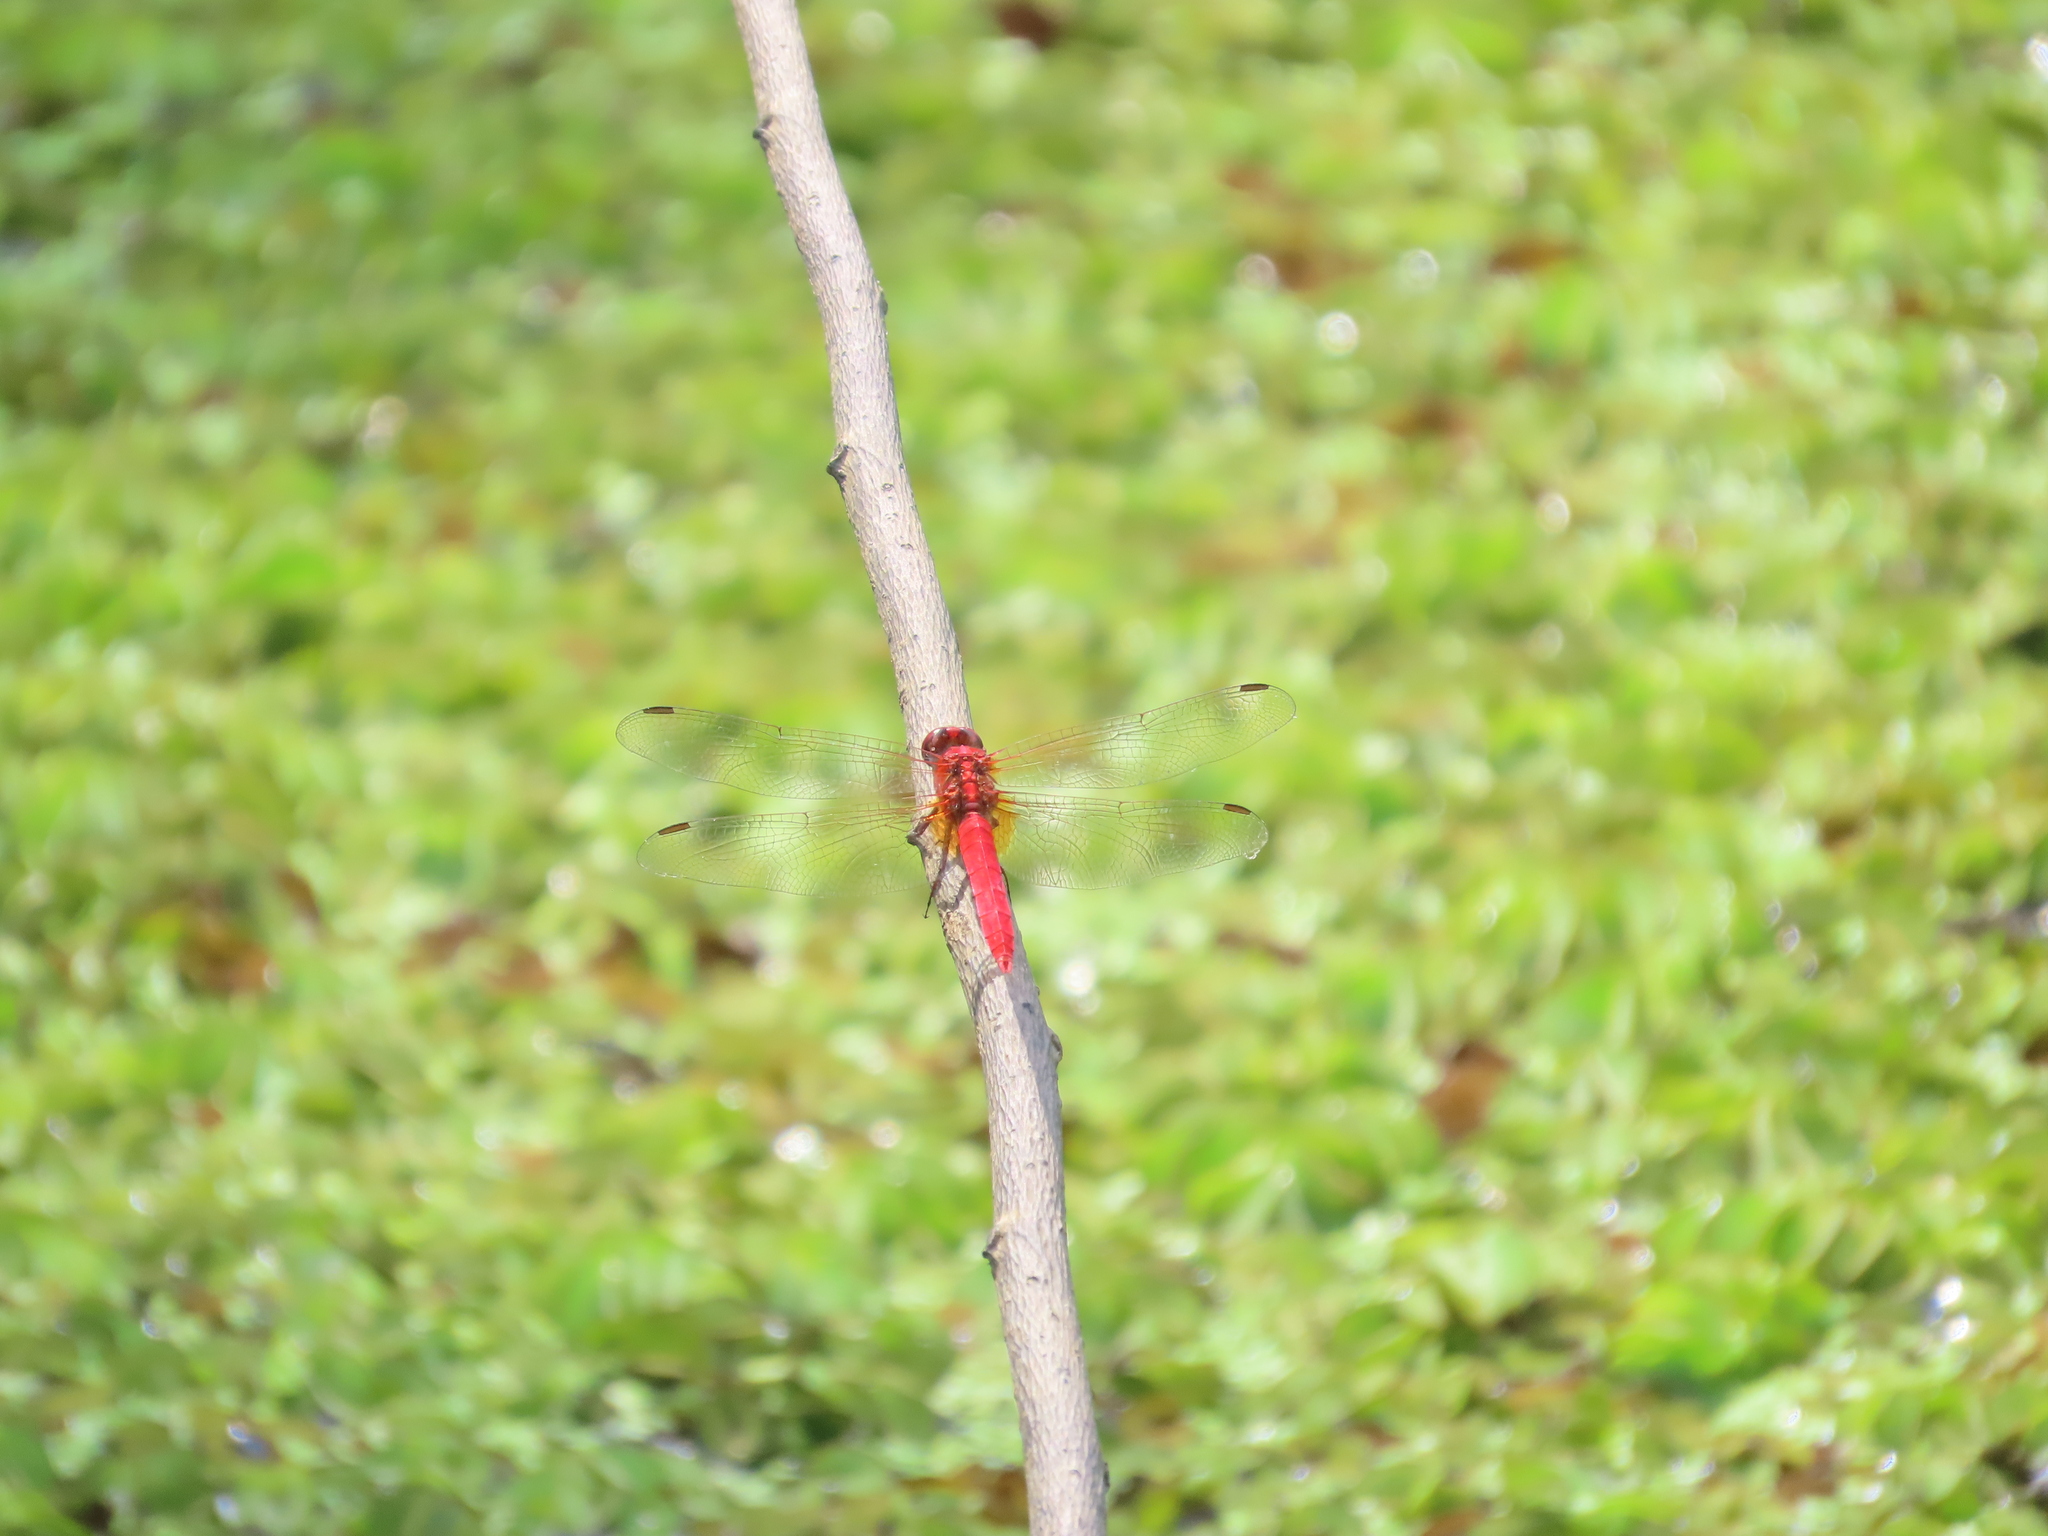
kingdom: Animalia
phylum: Arthropoda
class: Insecta
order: Odonata
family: Libellulidae
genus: Rhodothemis
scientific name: Rhodothemis rufa
